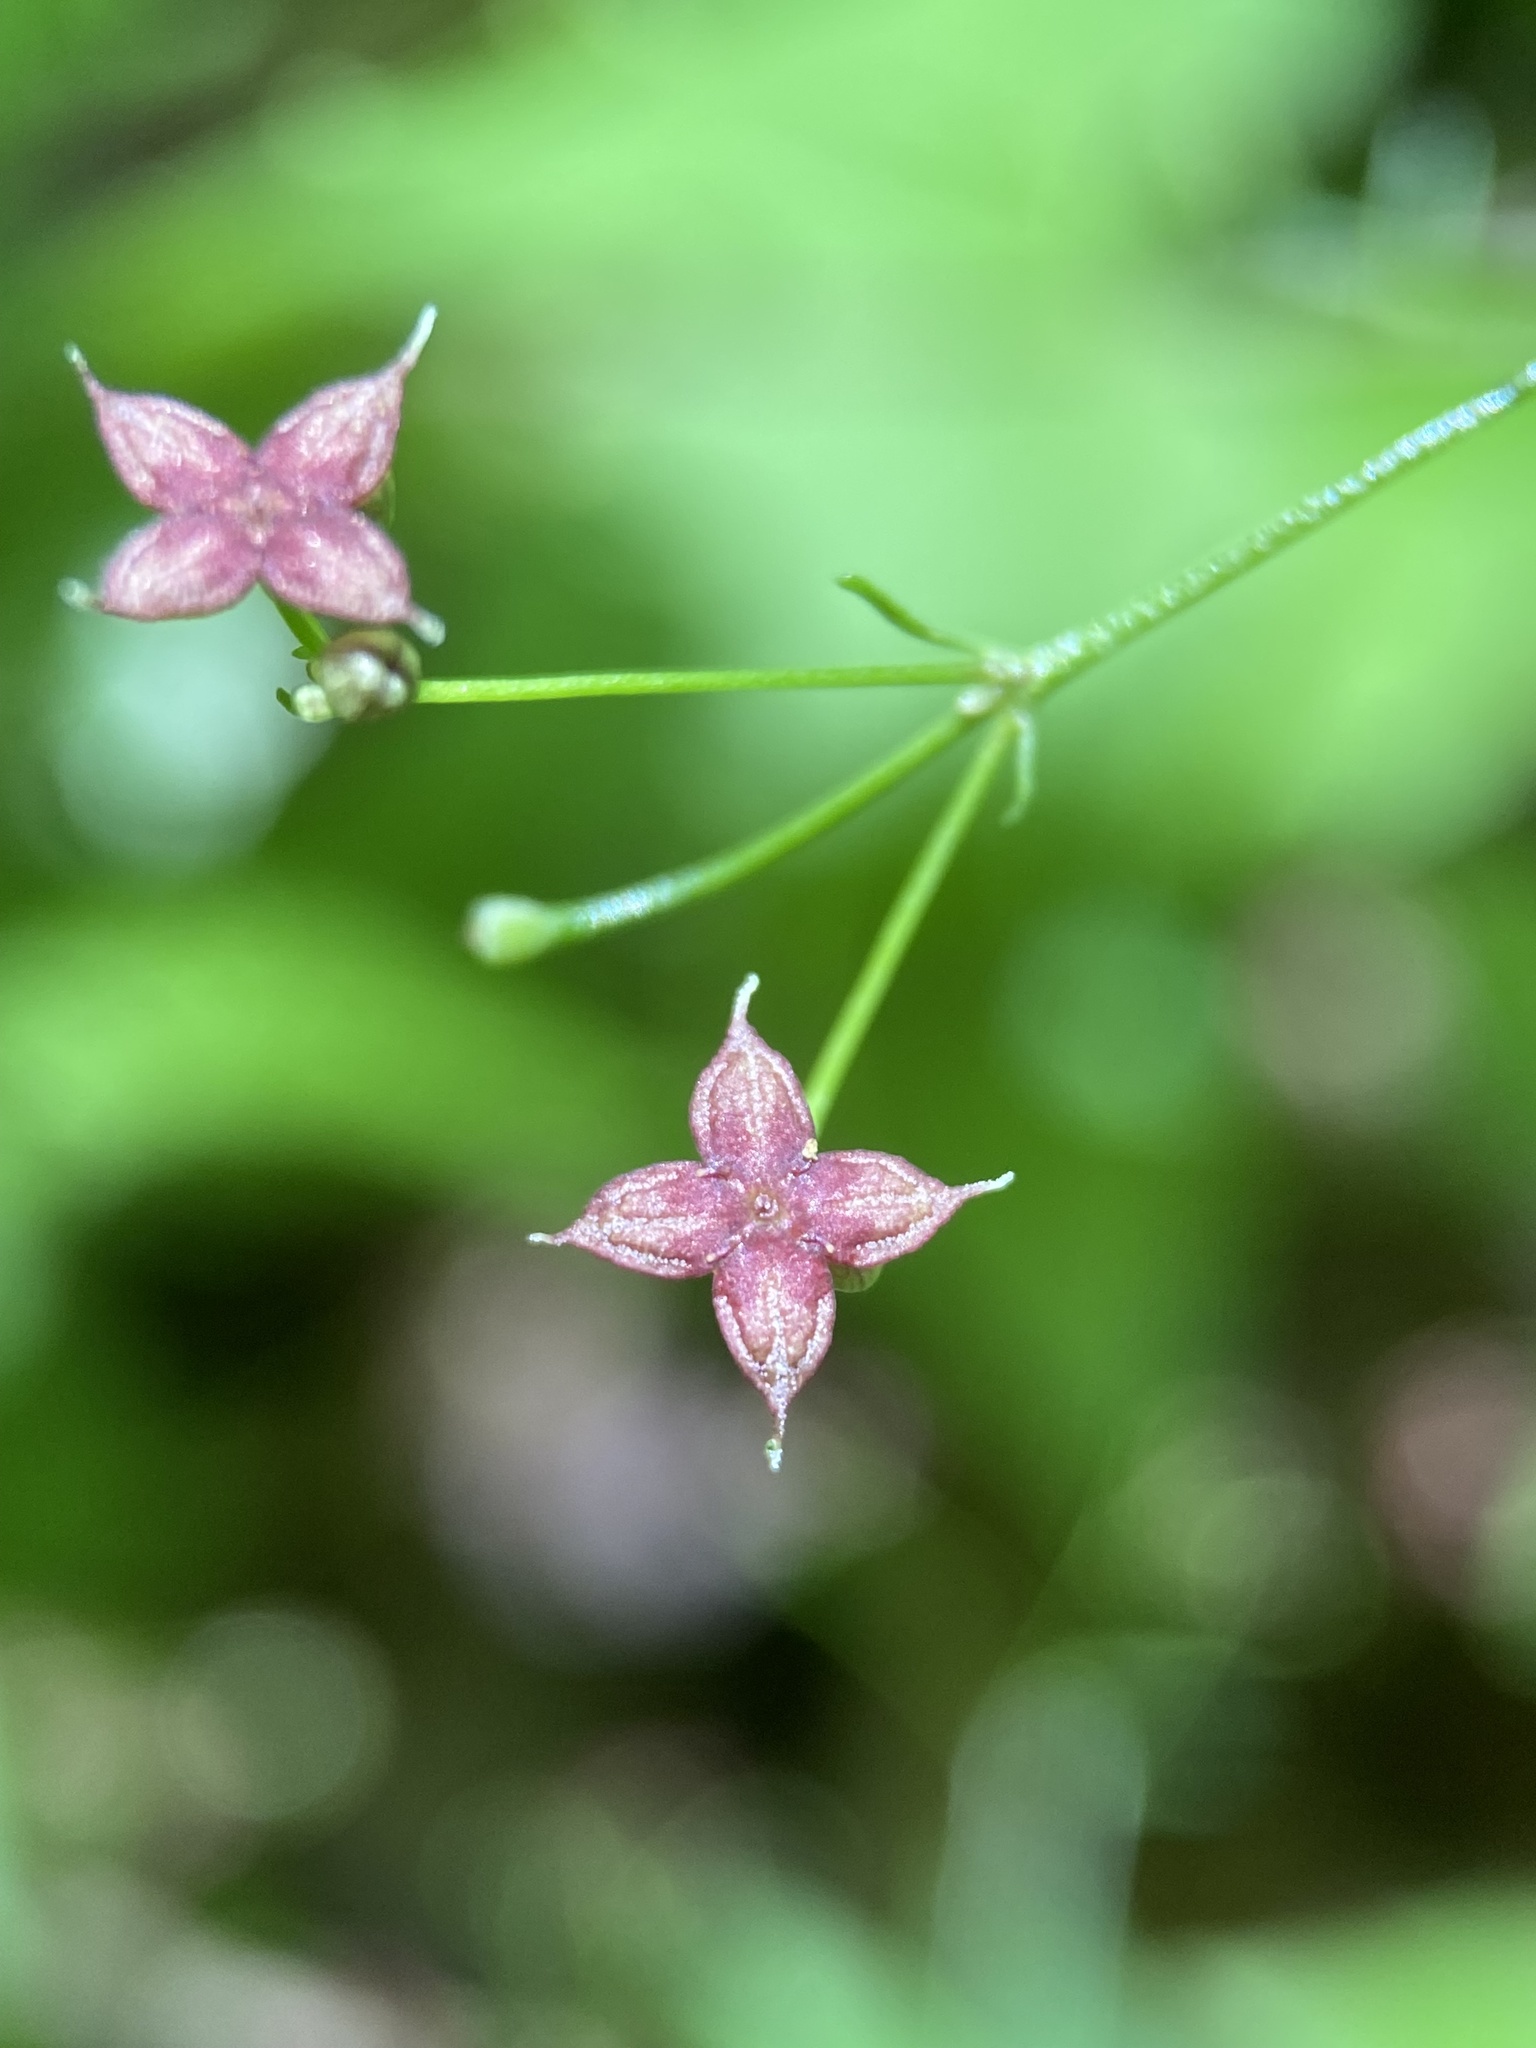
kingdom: Plantae
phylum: Tracheophyta
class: Magnoliopsida
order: Gentianales
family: Rubiaceae
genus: Galium
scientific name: Galium latifolium
